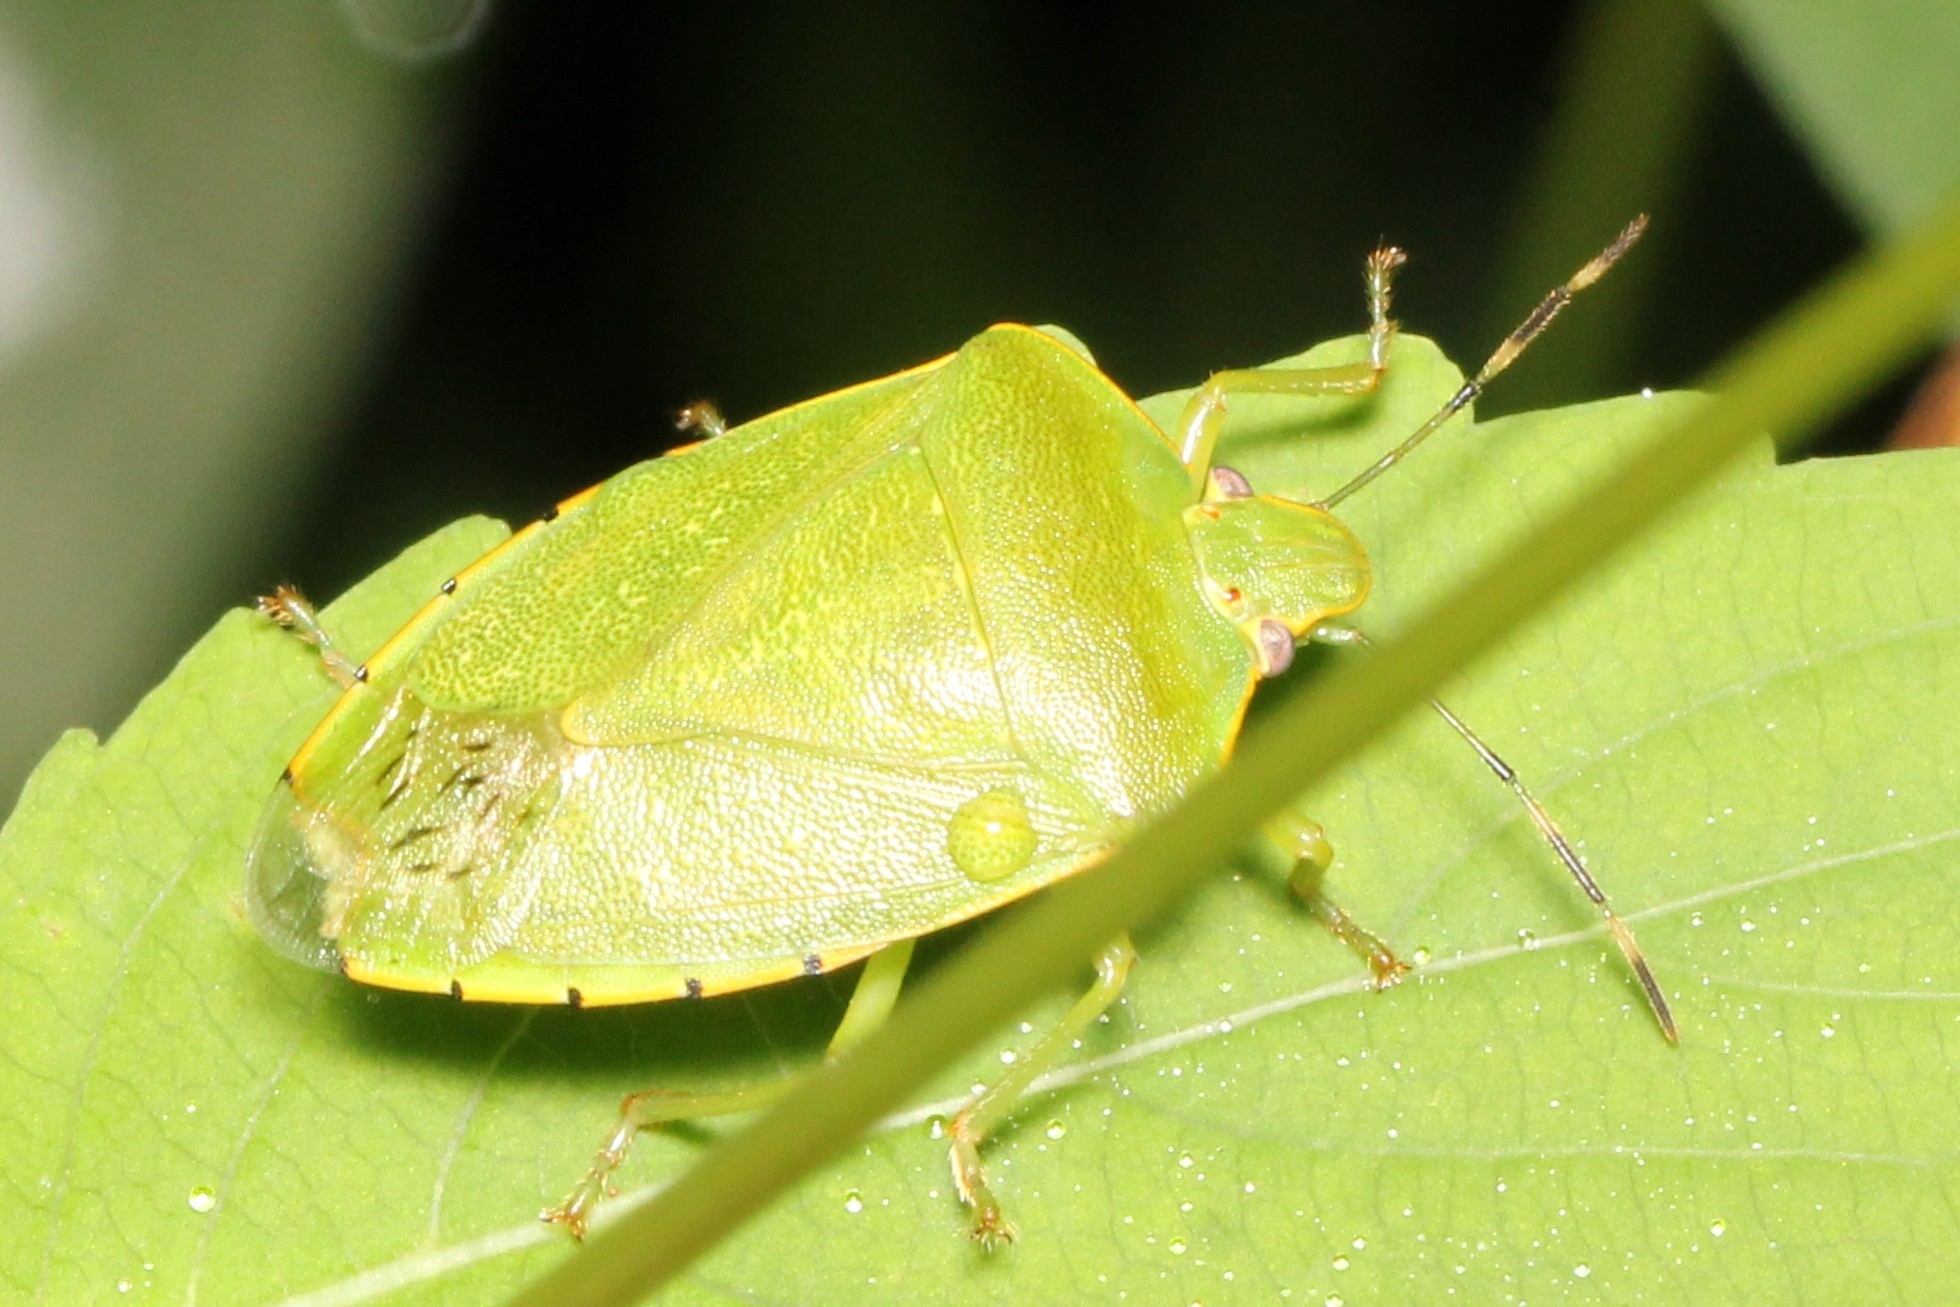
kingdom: Animalia
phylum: Arthropoda
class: Insecta
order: Hemiptera
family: Pentatomidae
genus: Chinavia
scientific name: Chinavia hilaris
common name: Green stink bug
